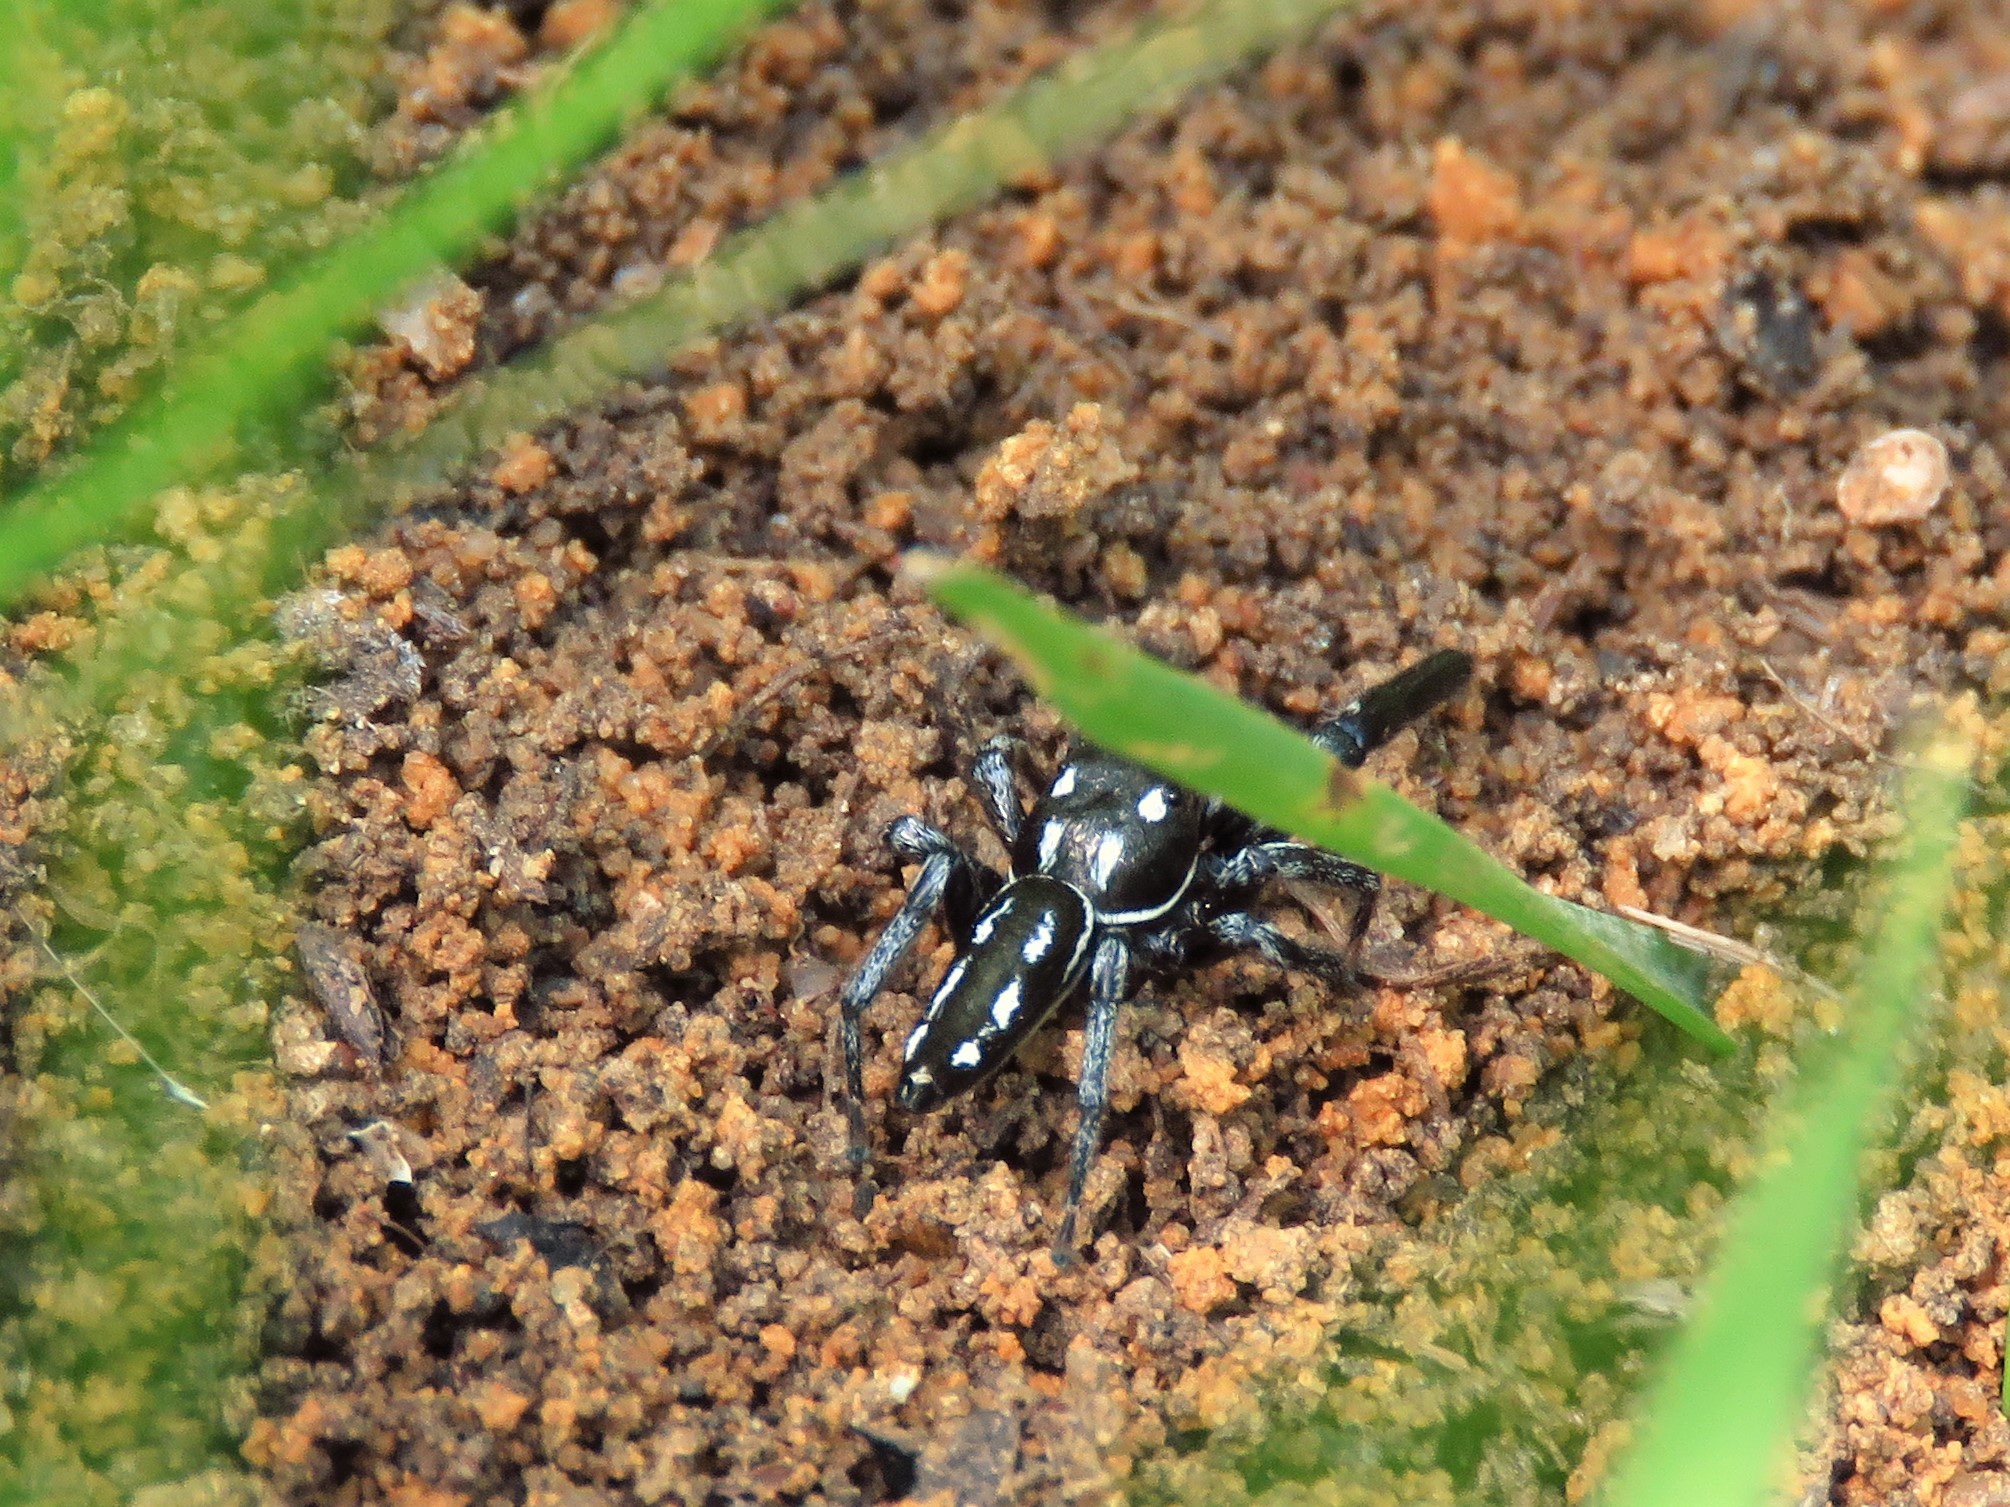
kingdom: Animalia
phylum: Arthropoda
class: Arachnida
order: Araneae
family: Salticidae
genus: Marpissa
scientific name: Marpissa formosa
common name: Short-bellied slender jumping spider
